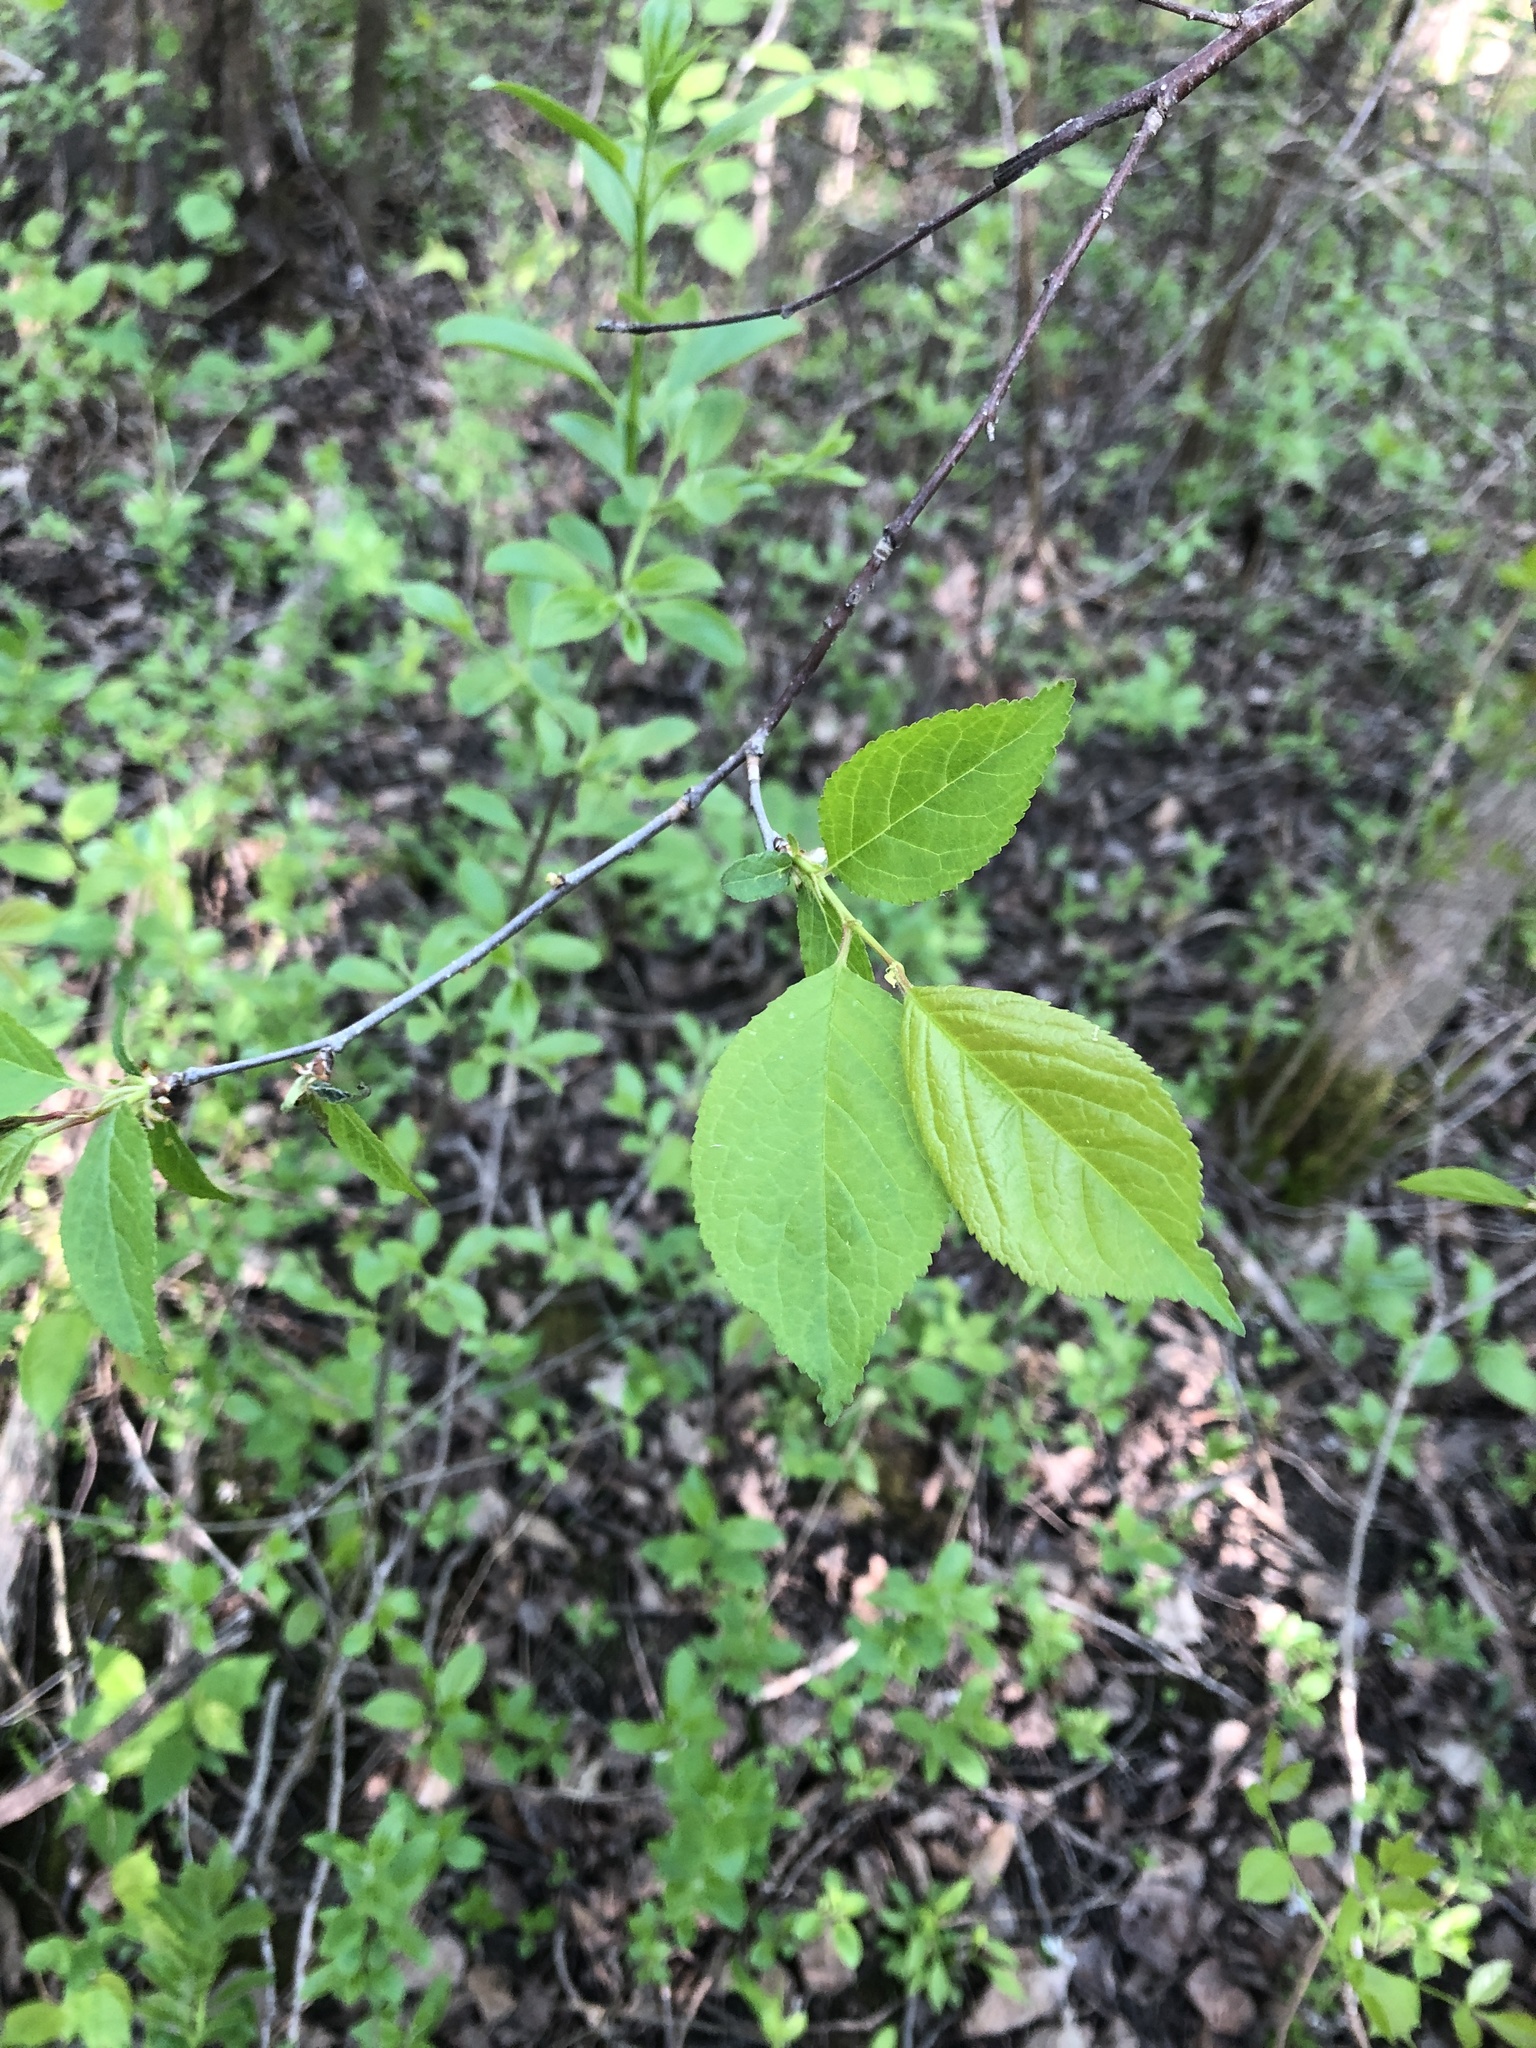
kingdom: Plantae
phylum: Tracheophyta
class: Magnoliopsida
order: Rosales
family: Rosaceae
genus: Prunus
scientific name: Prunus nigra
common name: Black plum
